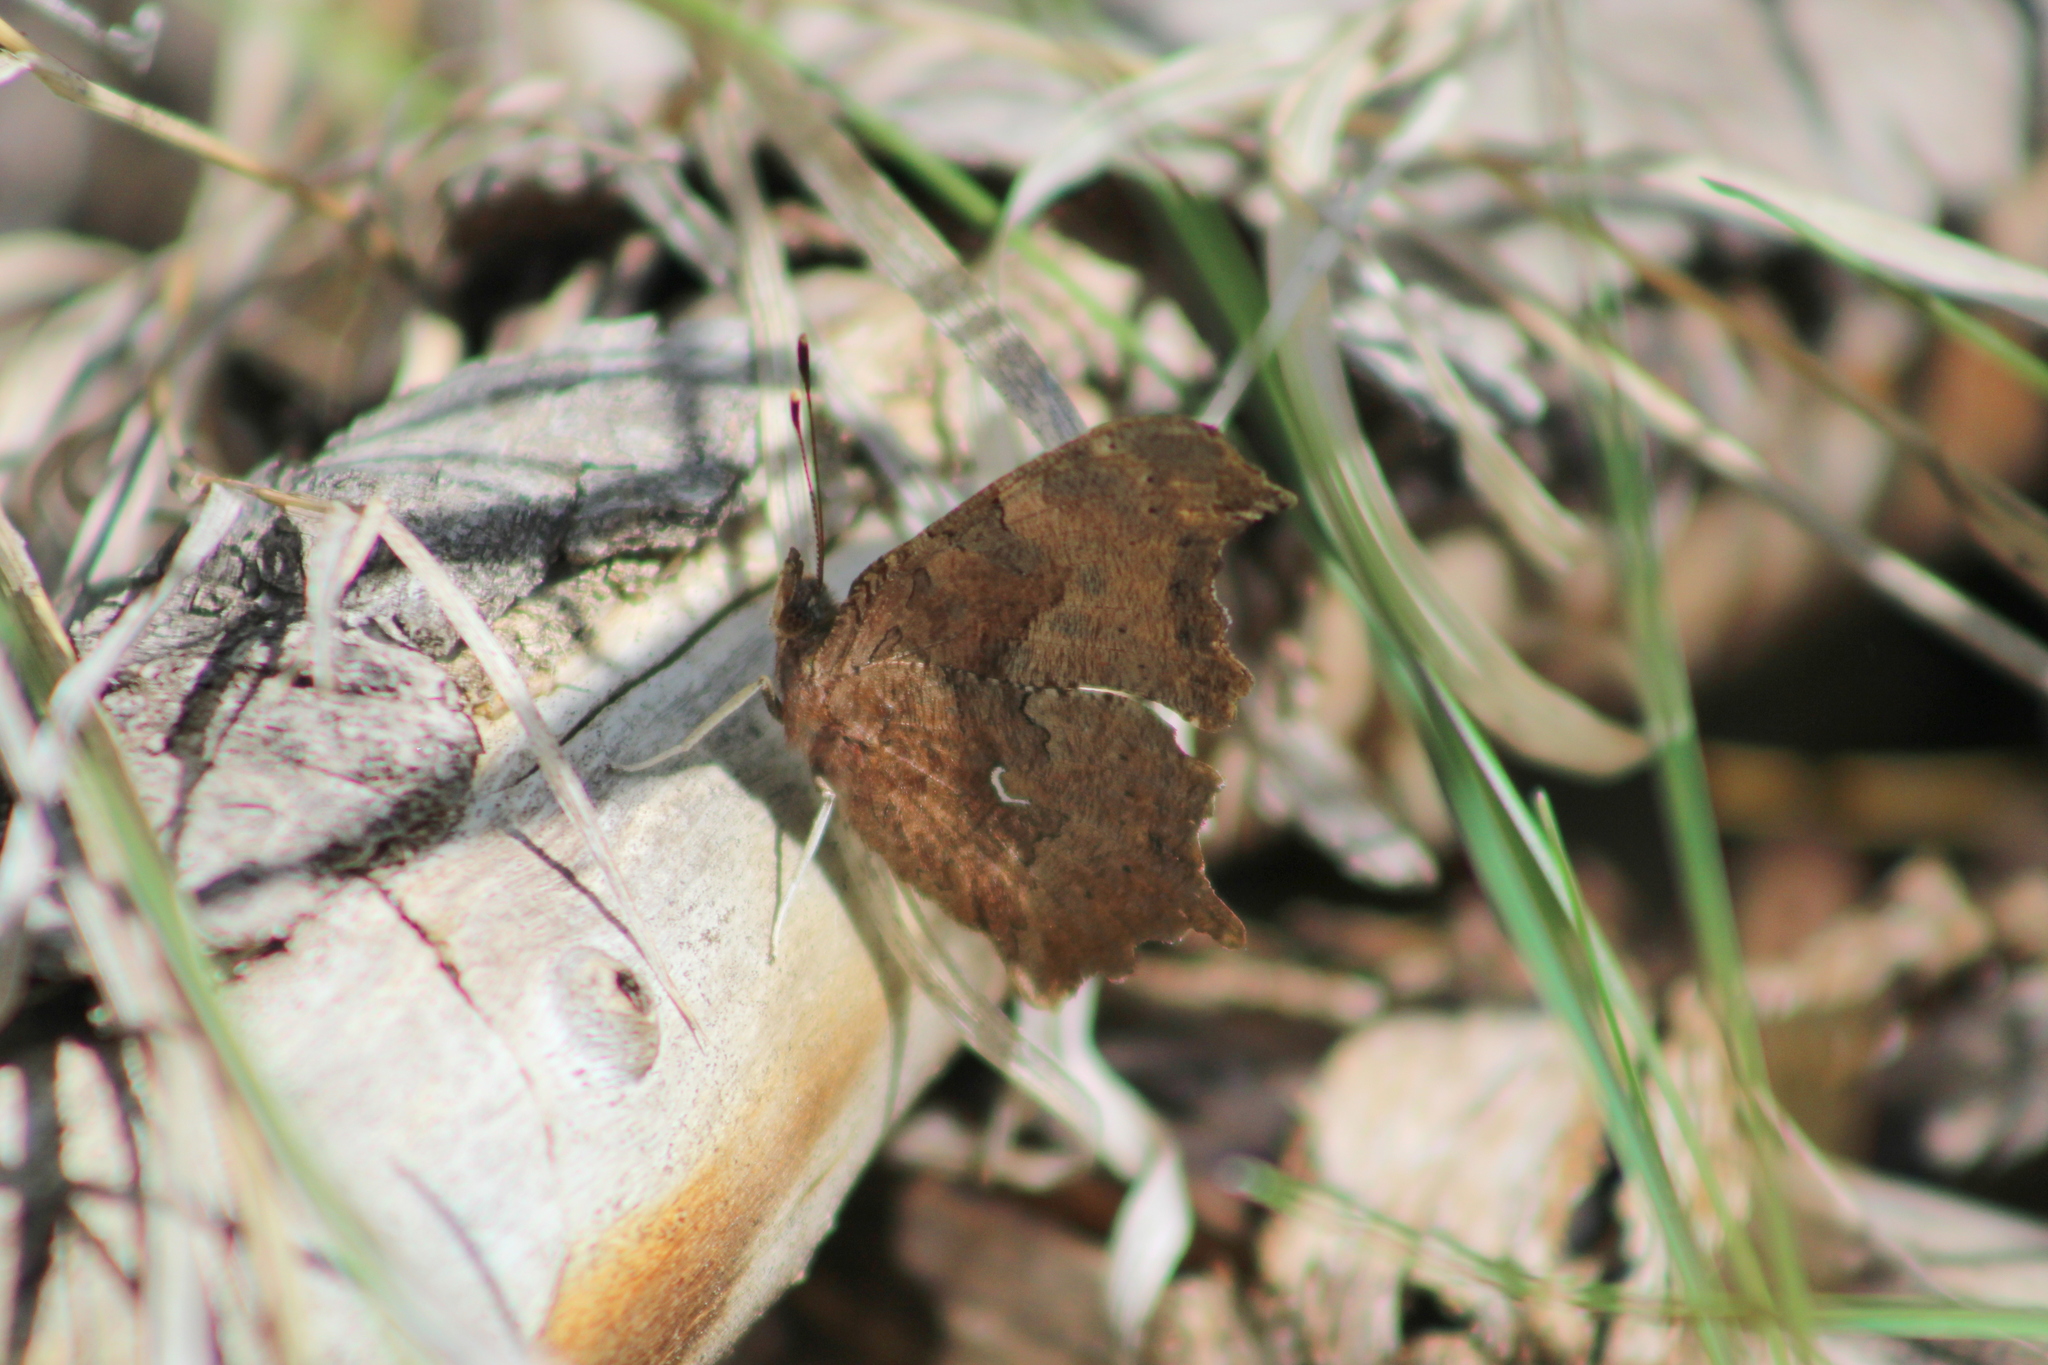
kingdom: Animalia
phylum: Arthropoda
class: Insecta
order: Lepidoptera
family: Nymphalidae
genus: Polygonia
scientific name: Polygonia comma
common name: Eastern comma
